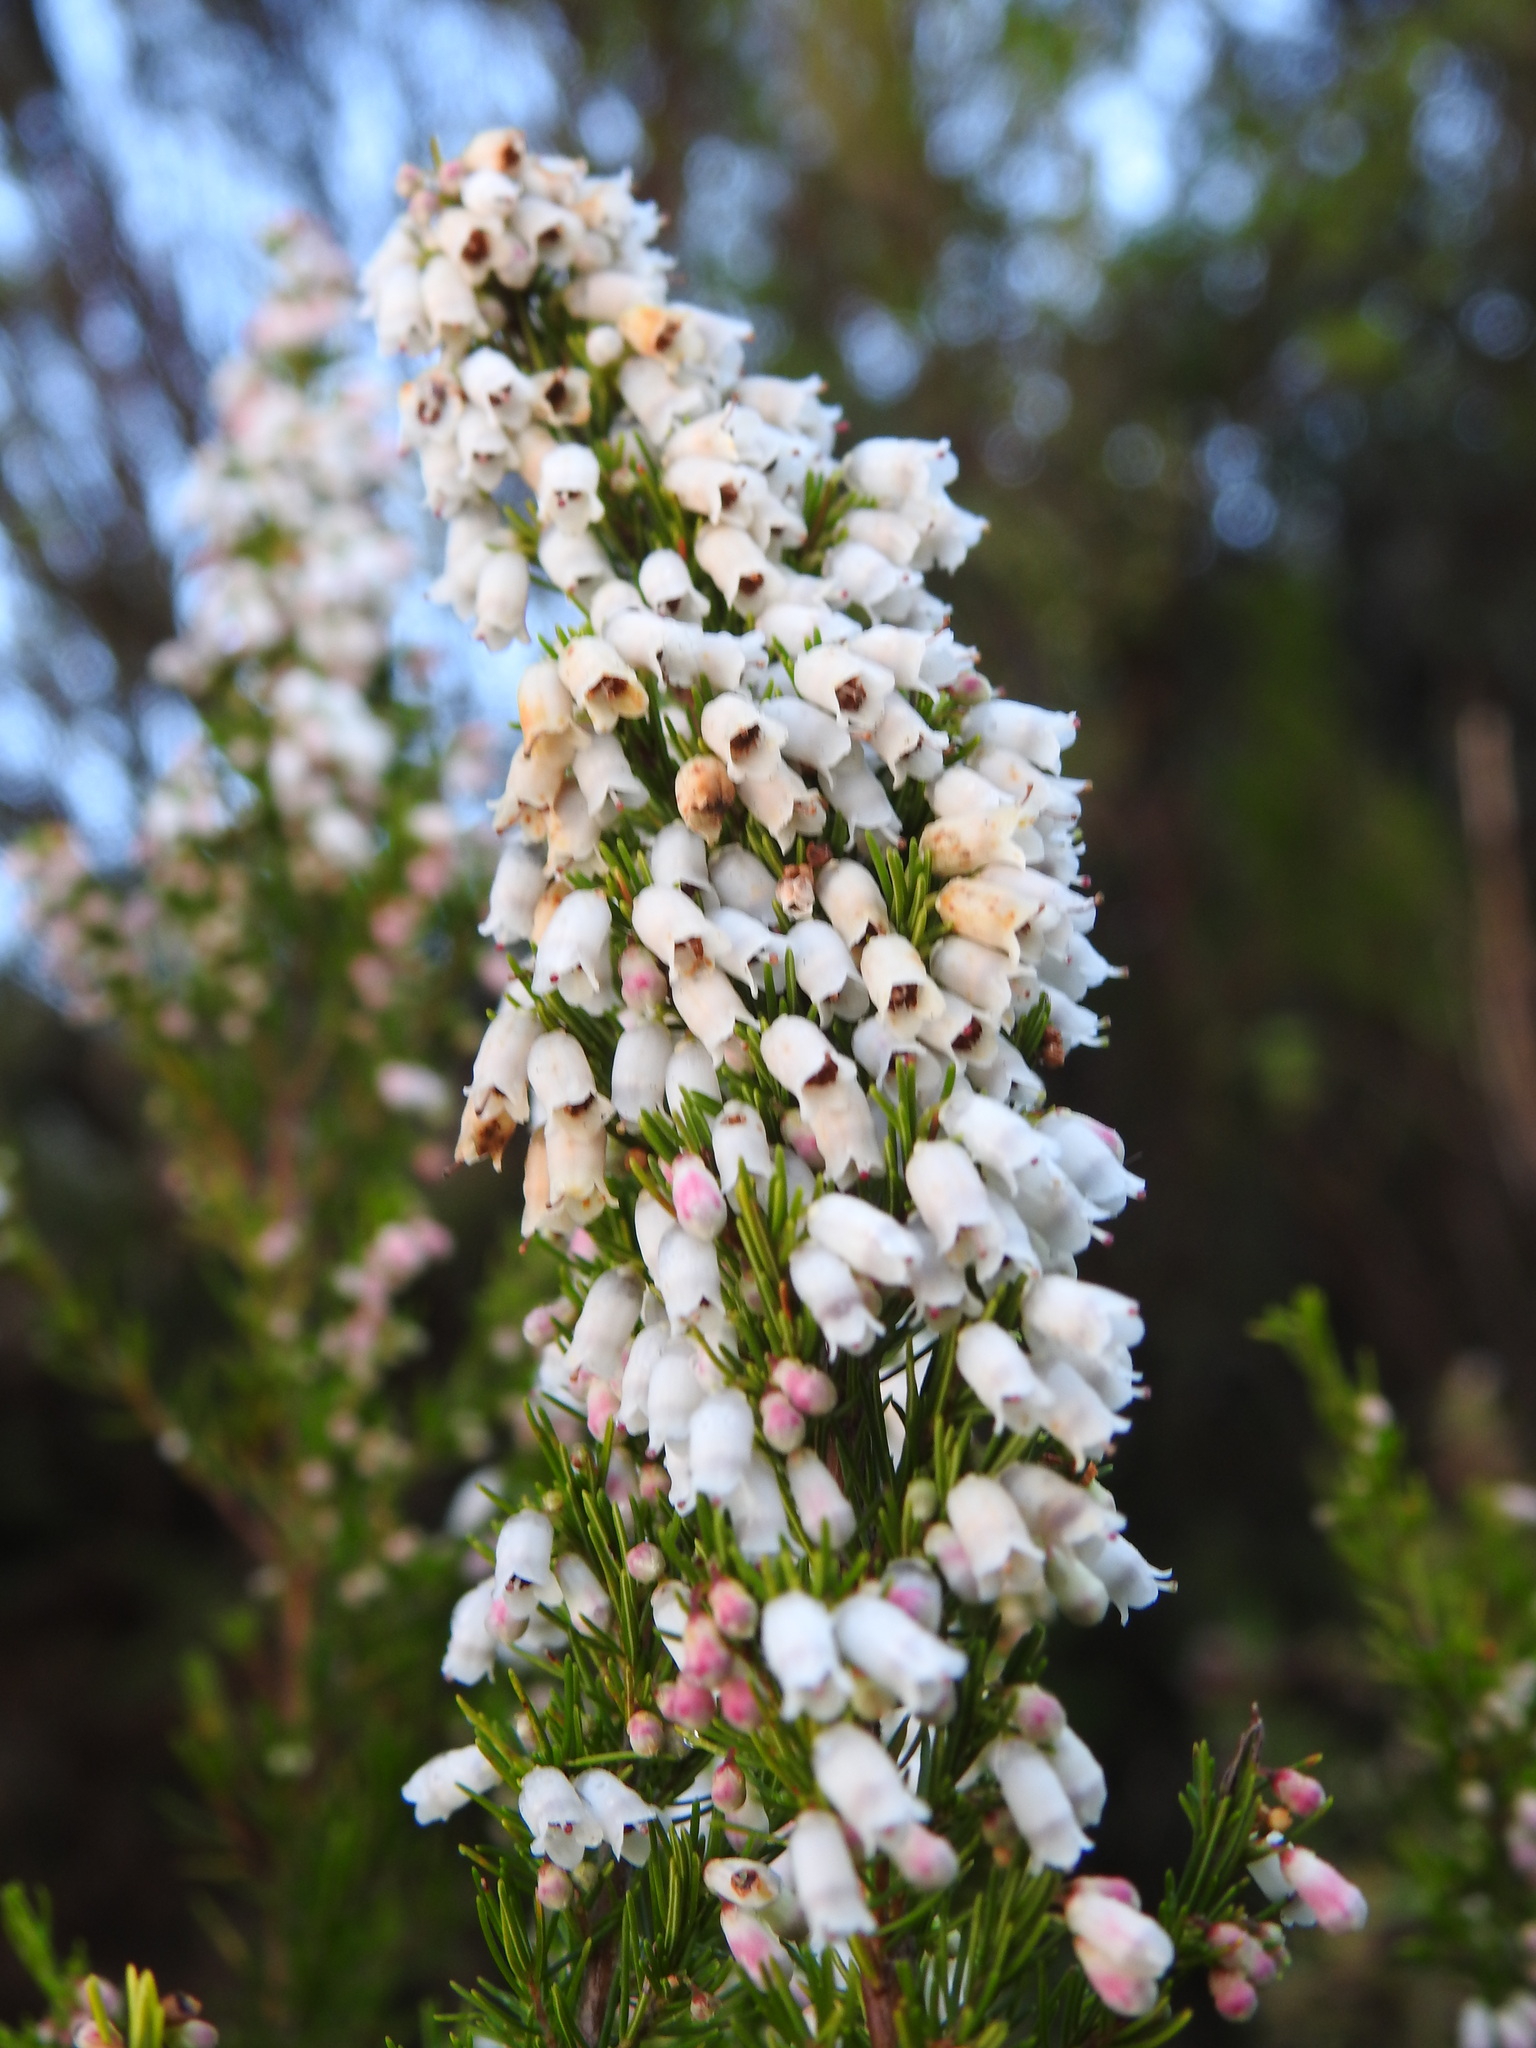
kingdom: Plantae
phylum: Tracheophyta
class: Magnoliopsida
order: Ericales
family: Ericaceae
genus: Erica
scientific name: Erica lusitanica
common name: Spanish heath
